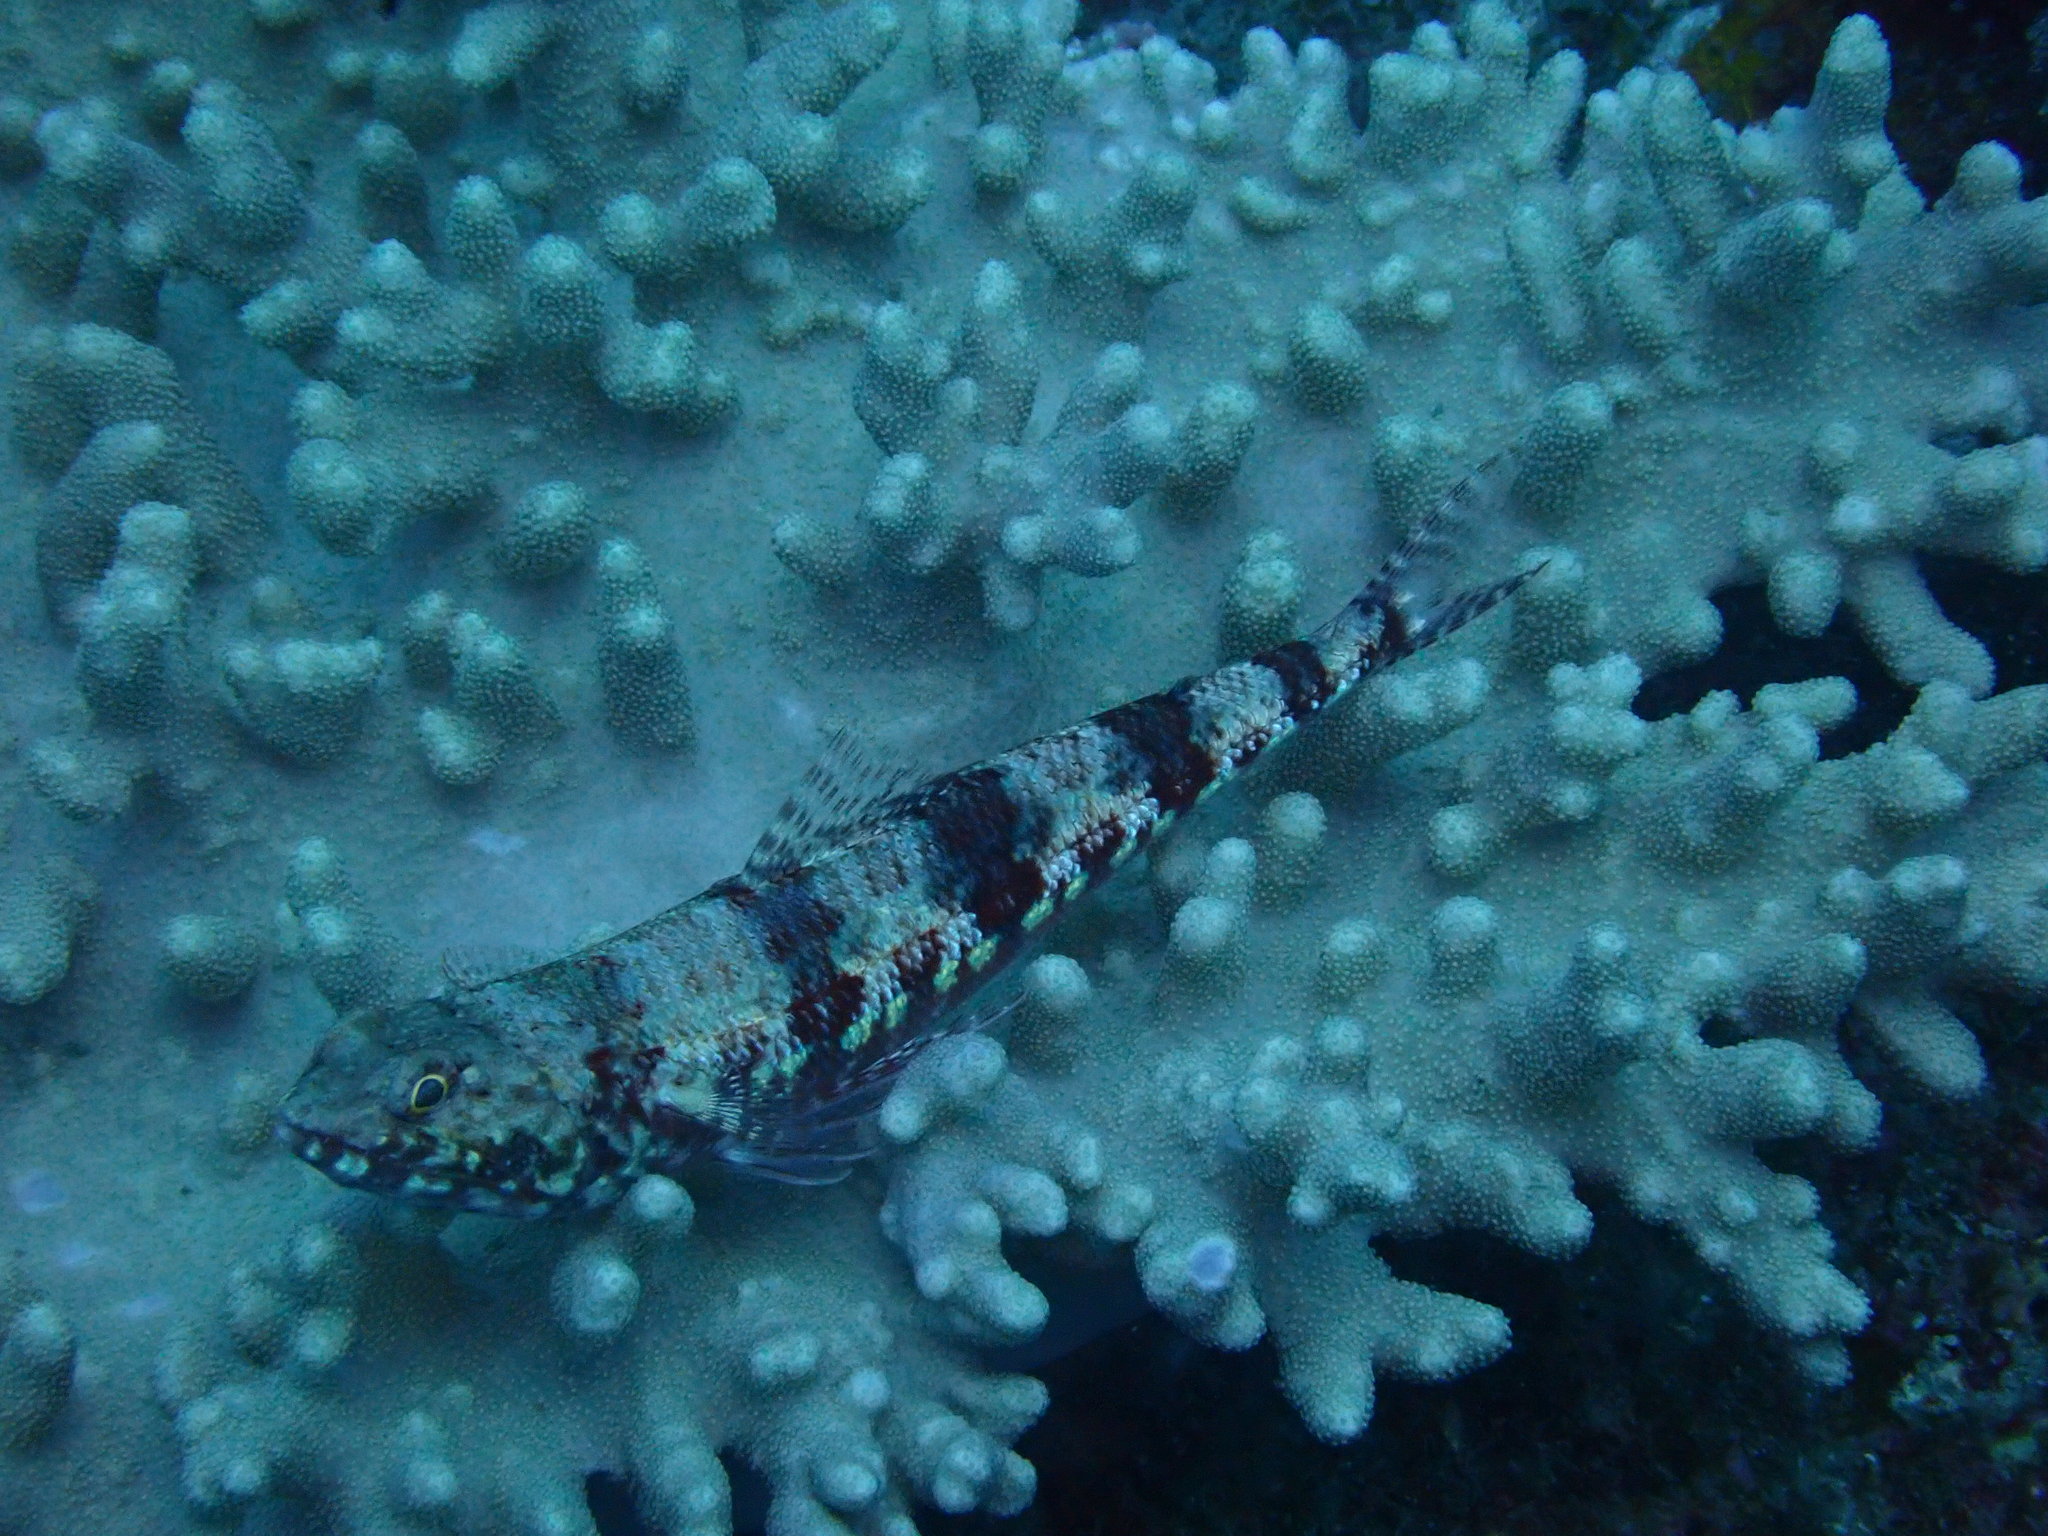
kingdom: Animalia
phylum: Chordata
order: Aulopiformes
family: Synodontidae
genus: Synodus
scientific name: Synodus variegatus
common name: Variegated lizardfish
